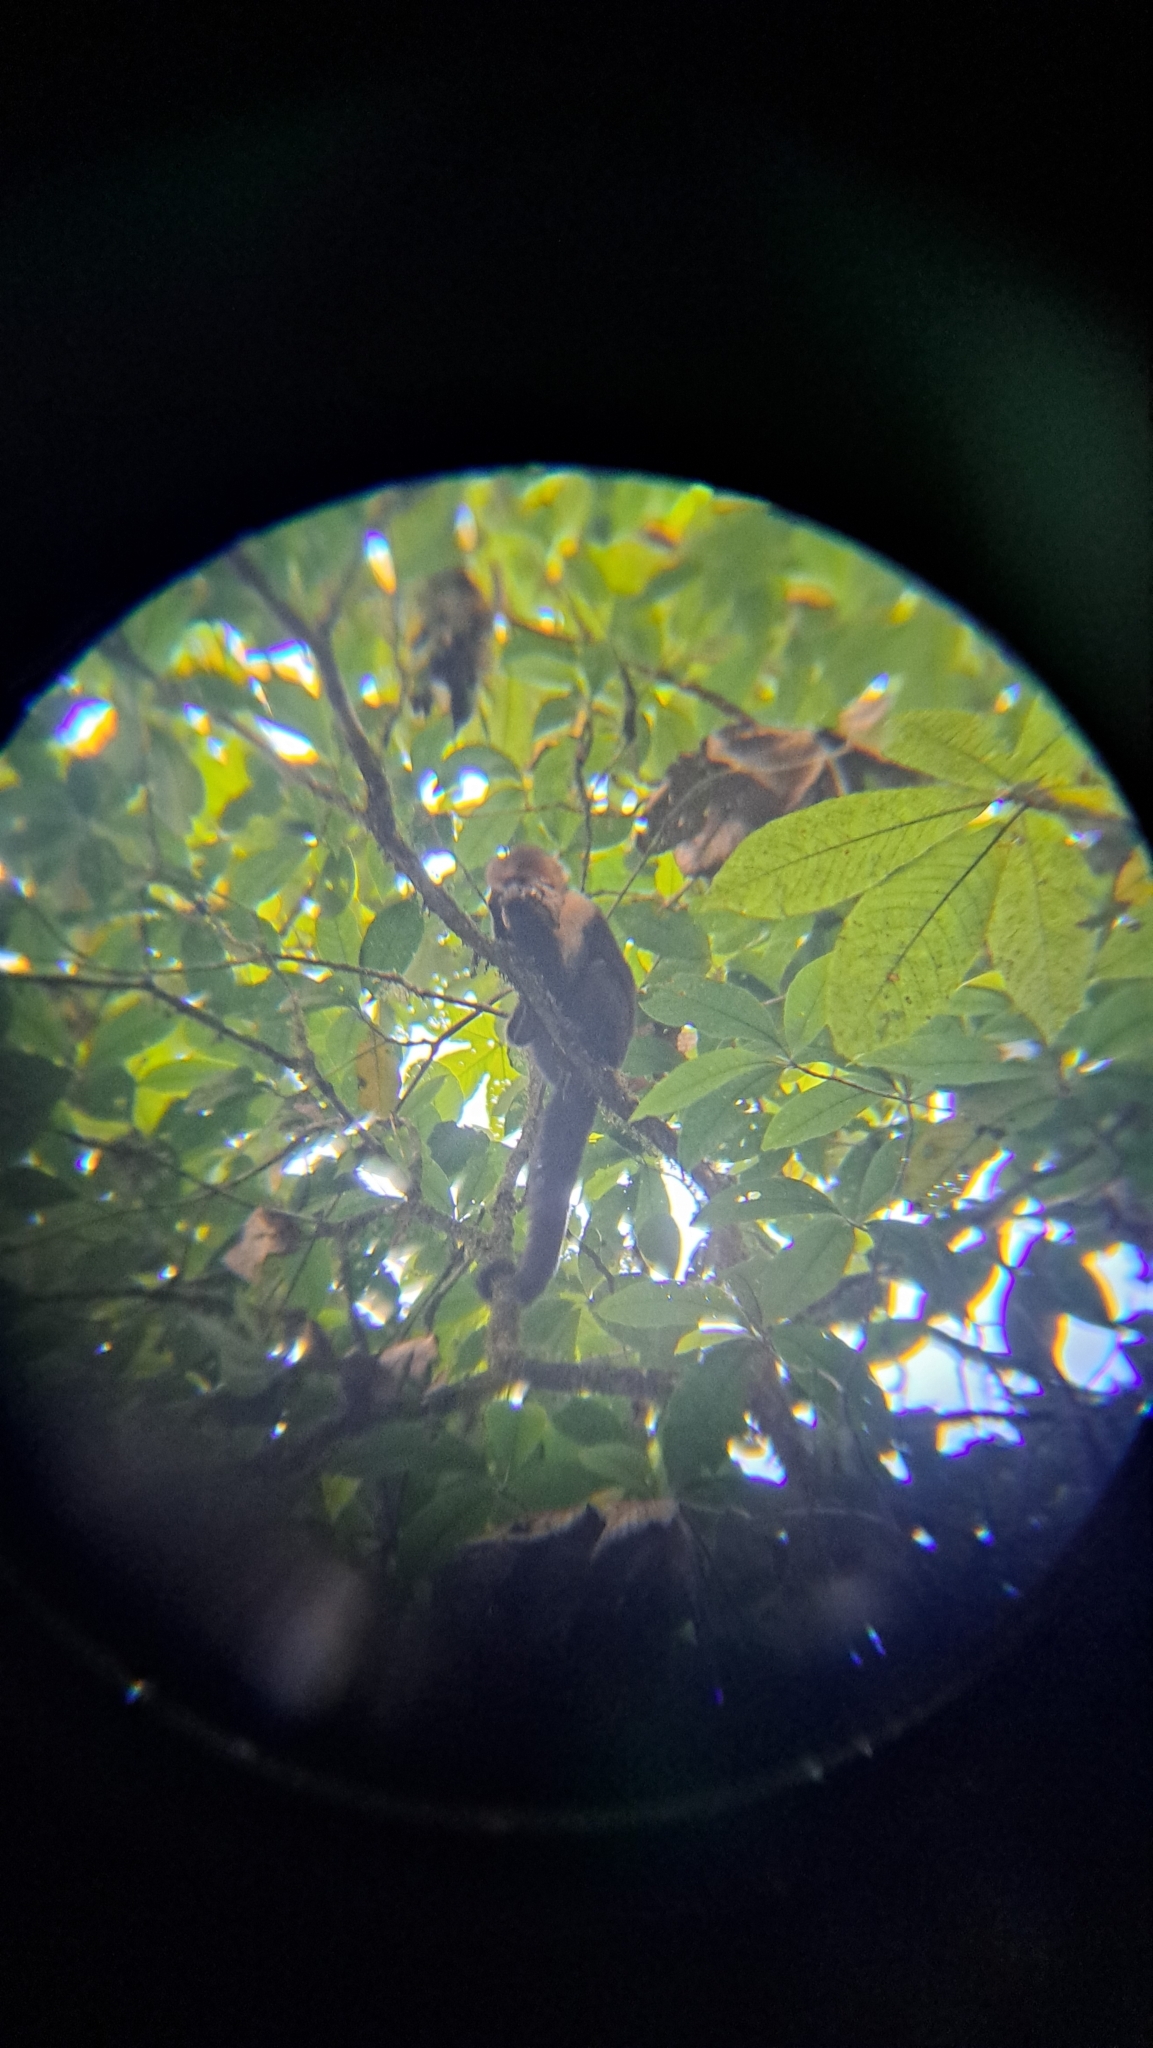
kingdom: Animalia
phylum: Chordata
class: Mammalia
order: Primates
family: Cebidae
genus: Cebus
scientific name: Cebus imitator
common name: Panamanian white-faced capuchin
